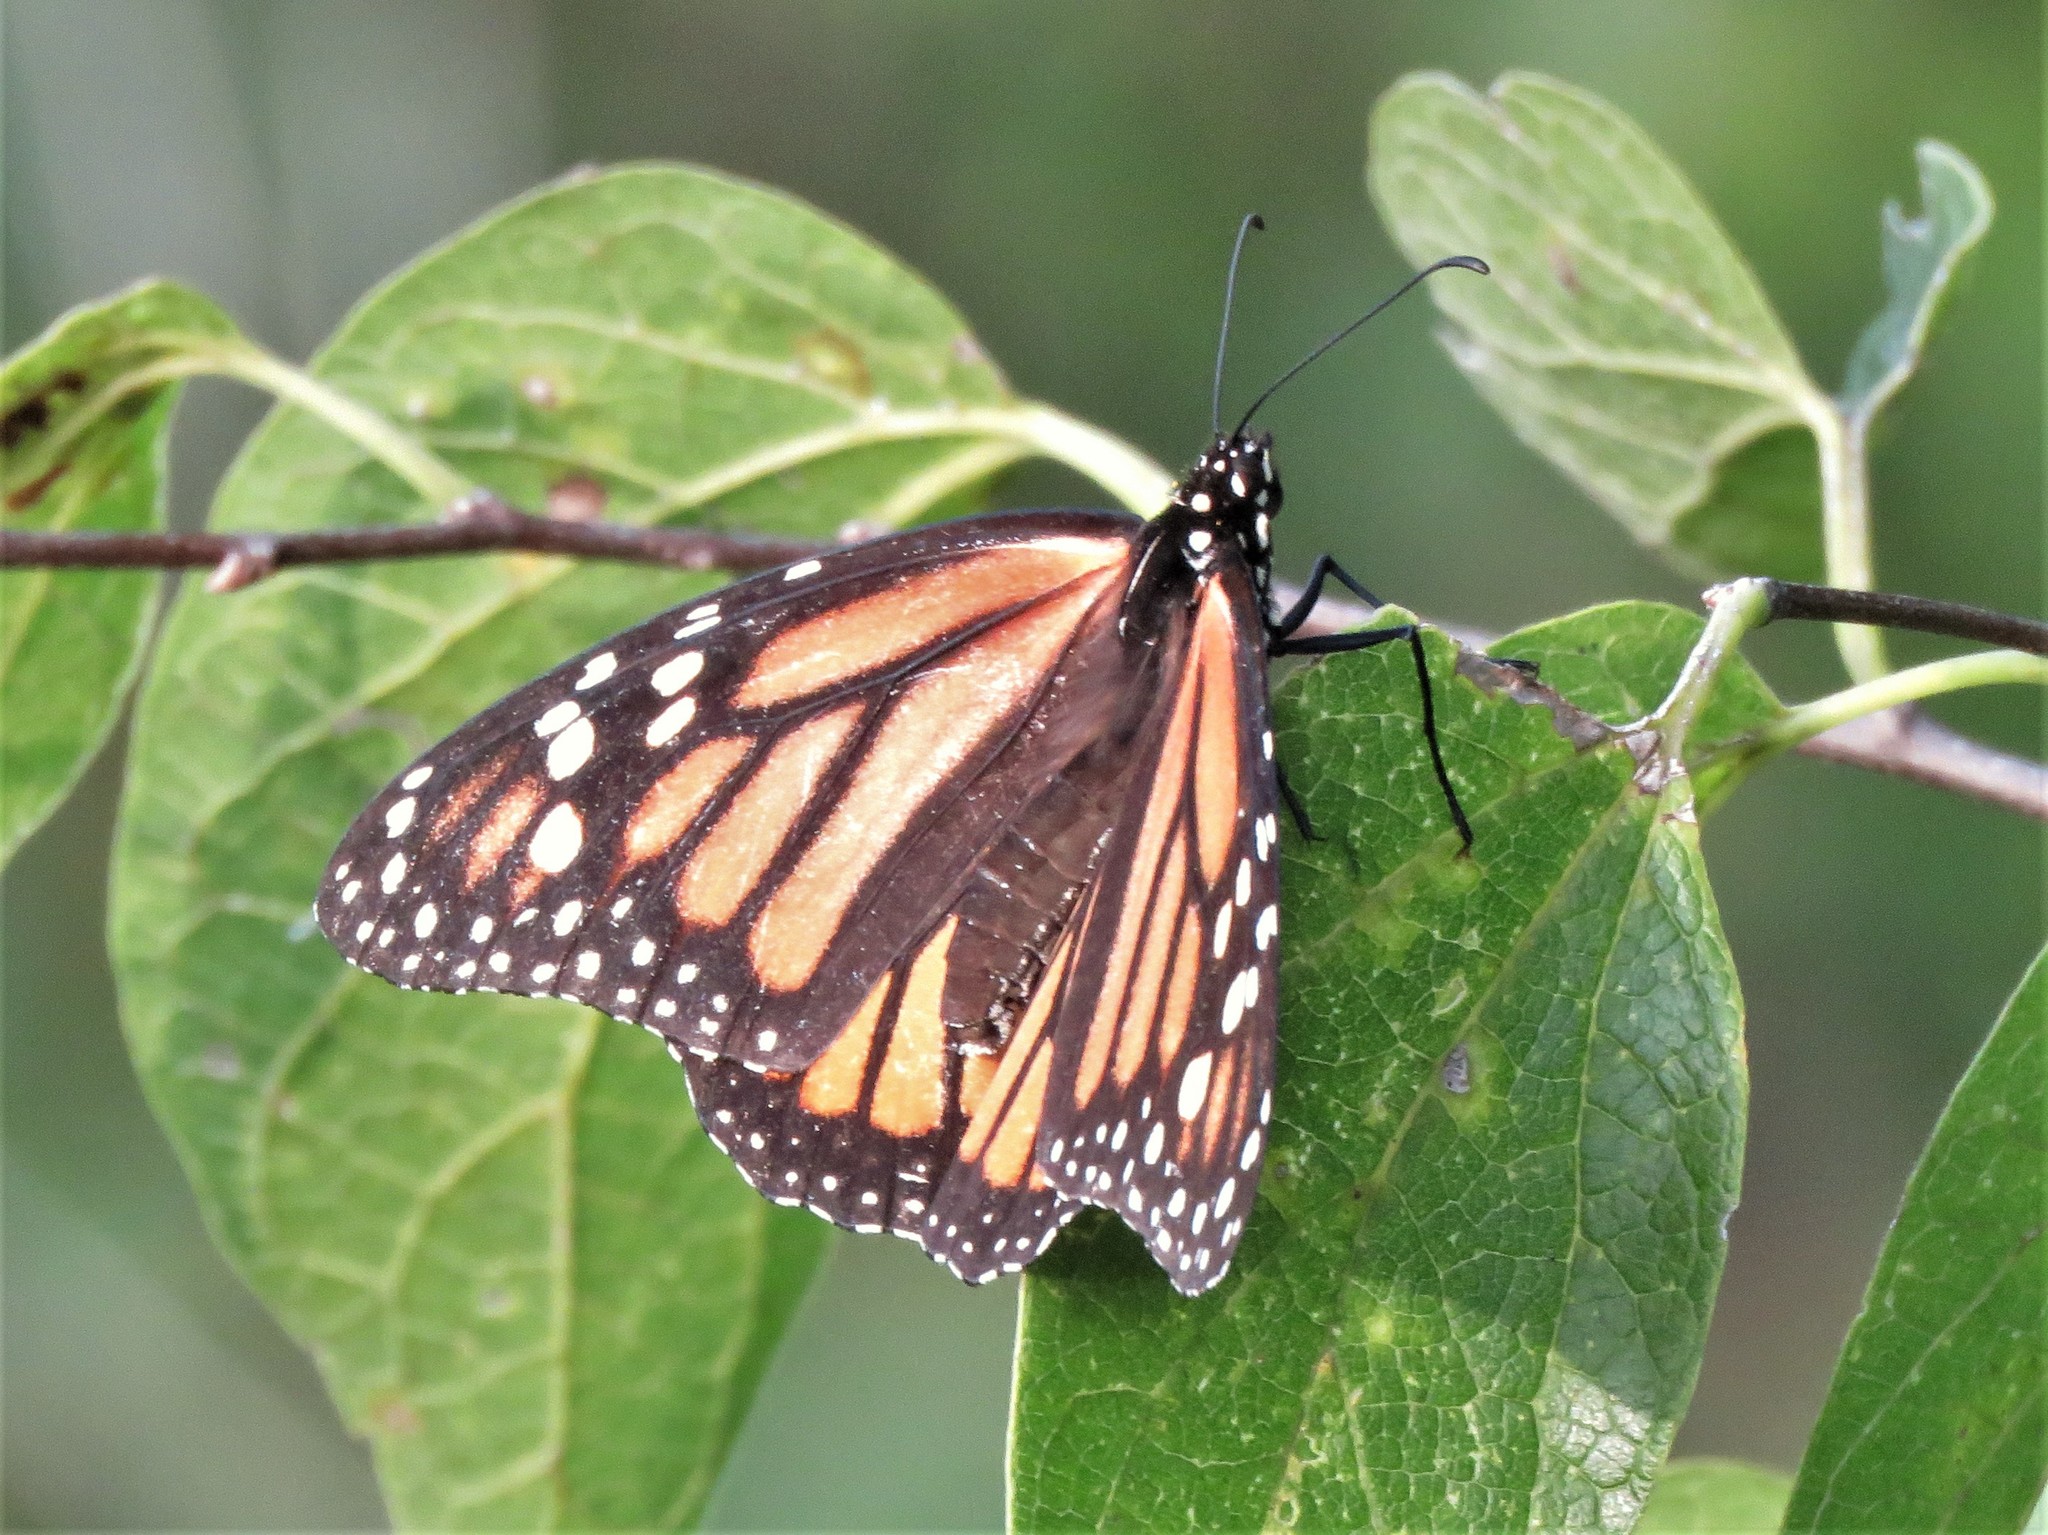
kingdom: Animalia
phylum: Arthropoda
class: Insecta
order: Lepidoptera
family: Nymphalidae
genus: Danaus
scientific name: Danaus plexippus
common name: Monarch
